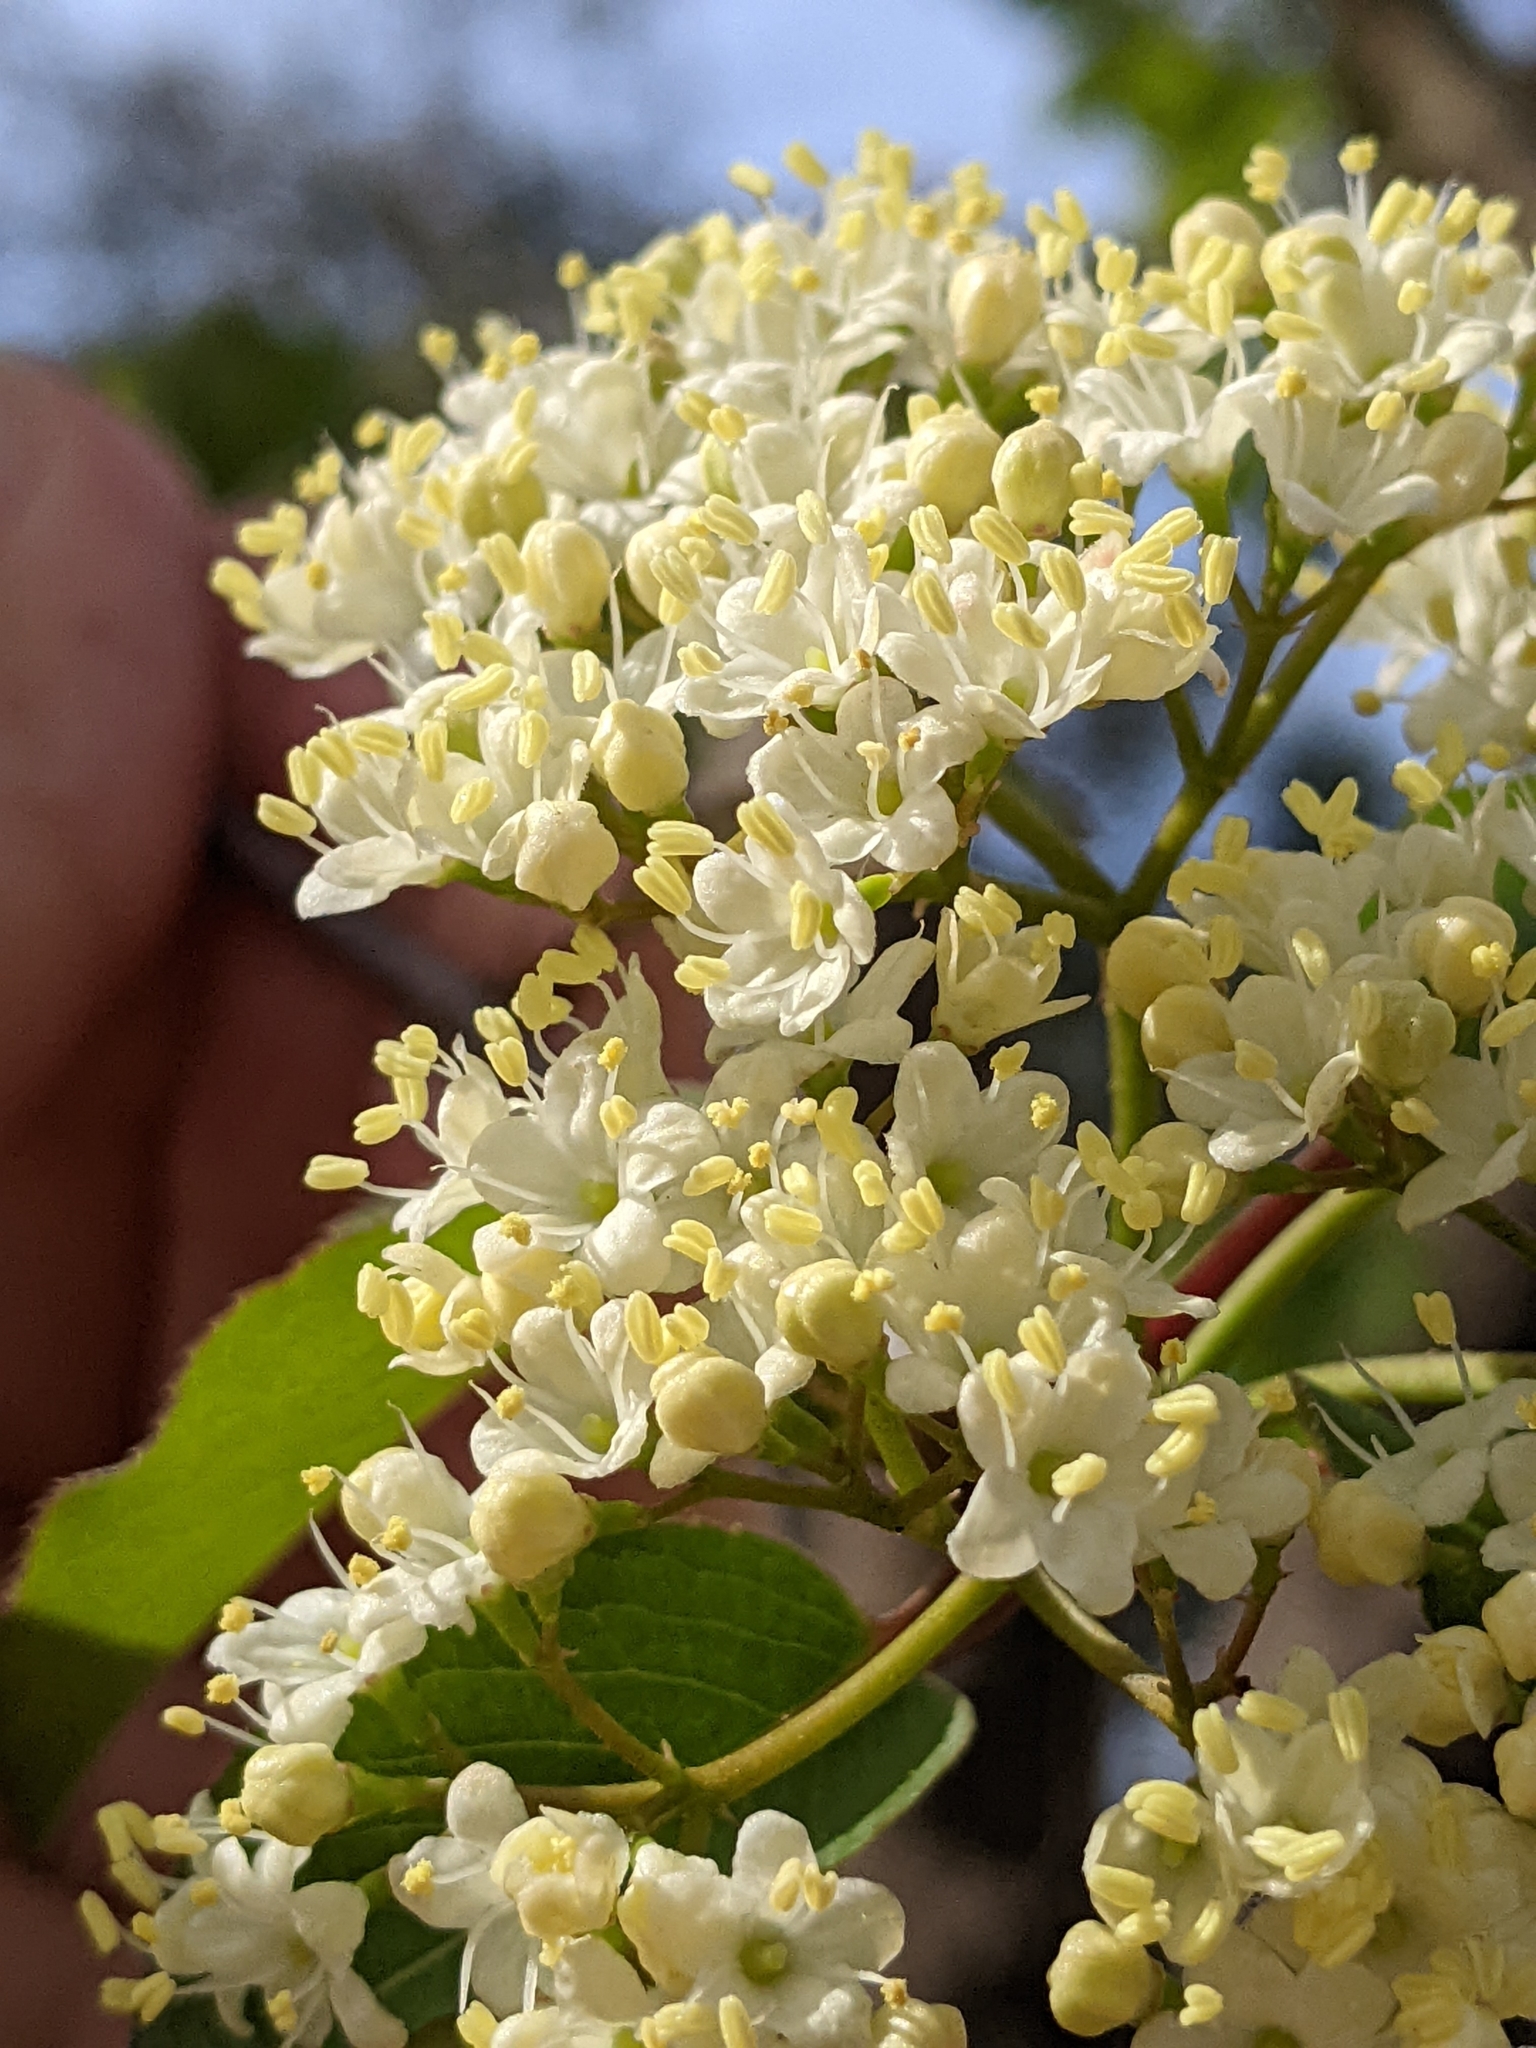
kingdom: Plantae
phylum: Tracheophyta
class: Magnoliopsida
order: Dipsacales
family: Viburnaceae
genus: Viburnum
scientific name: Viburnum prunifolium
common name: Black haw
